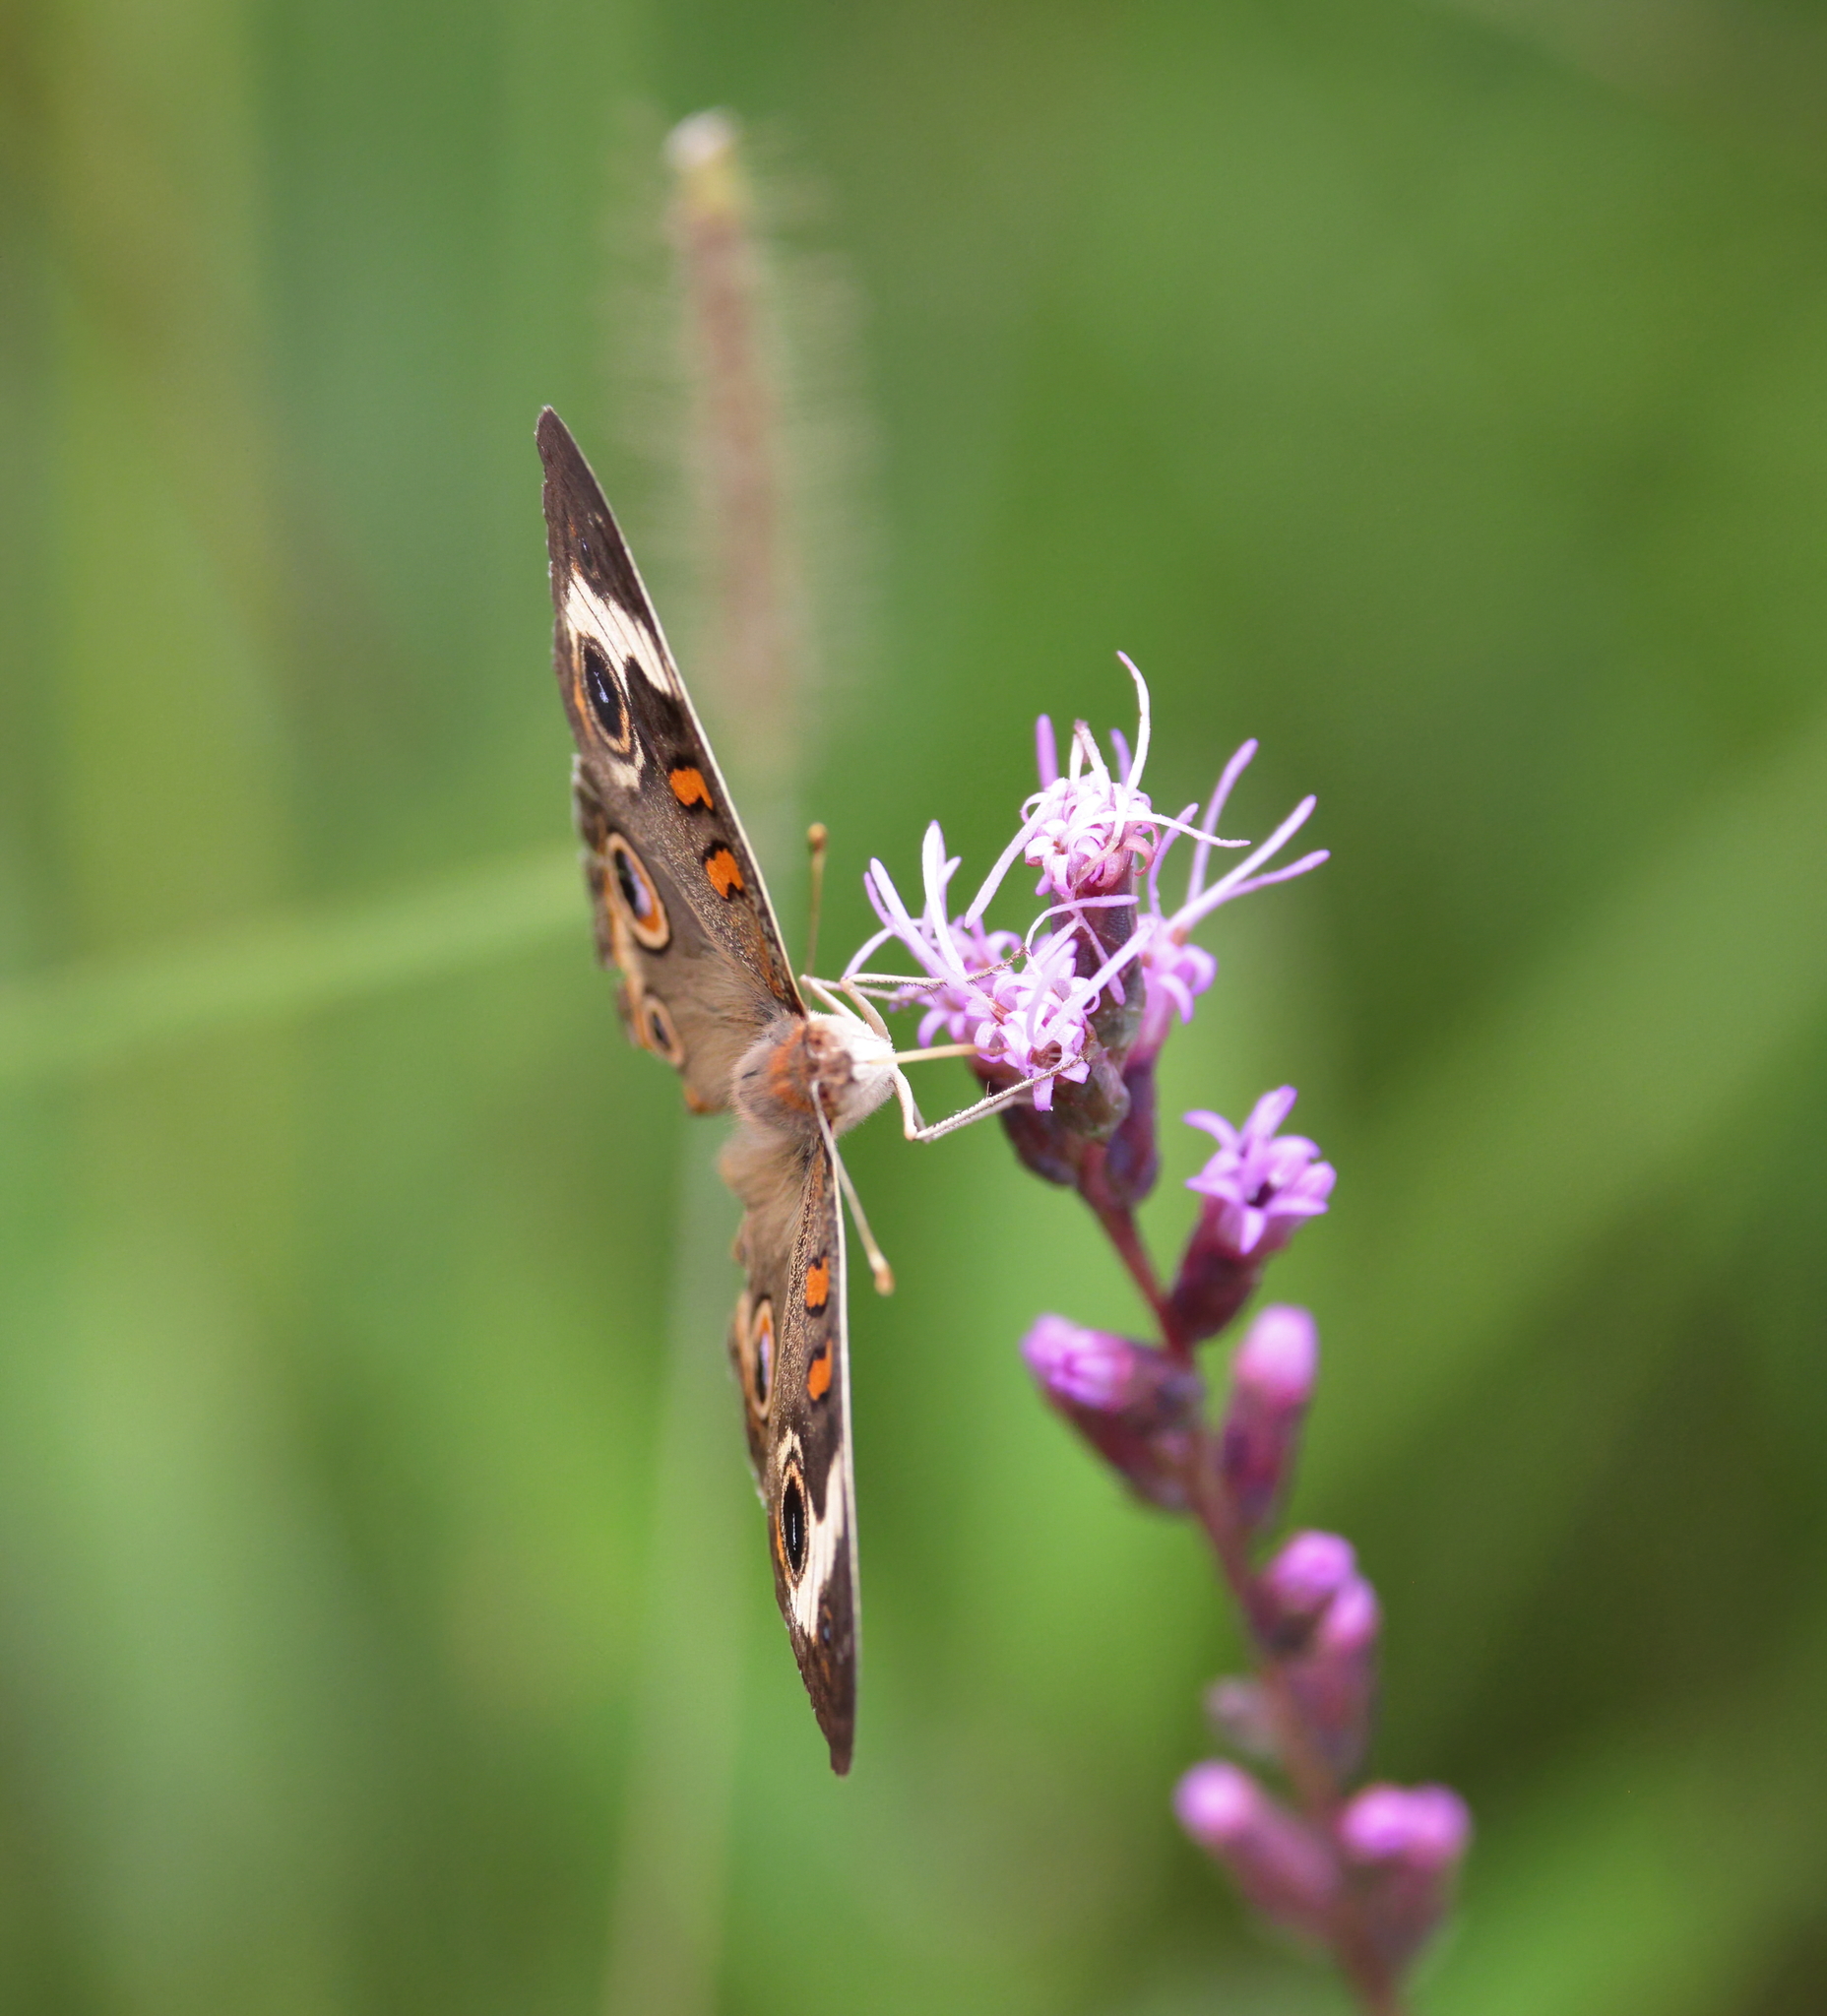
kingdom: Animalia
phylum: Arthropoda
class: Insecta
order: Lepidoptera
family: Nymphalidae
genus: Junonia
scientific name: Junonia coenia
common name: Common buckeye
